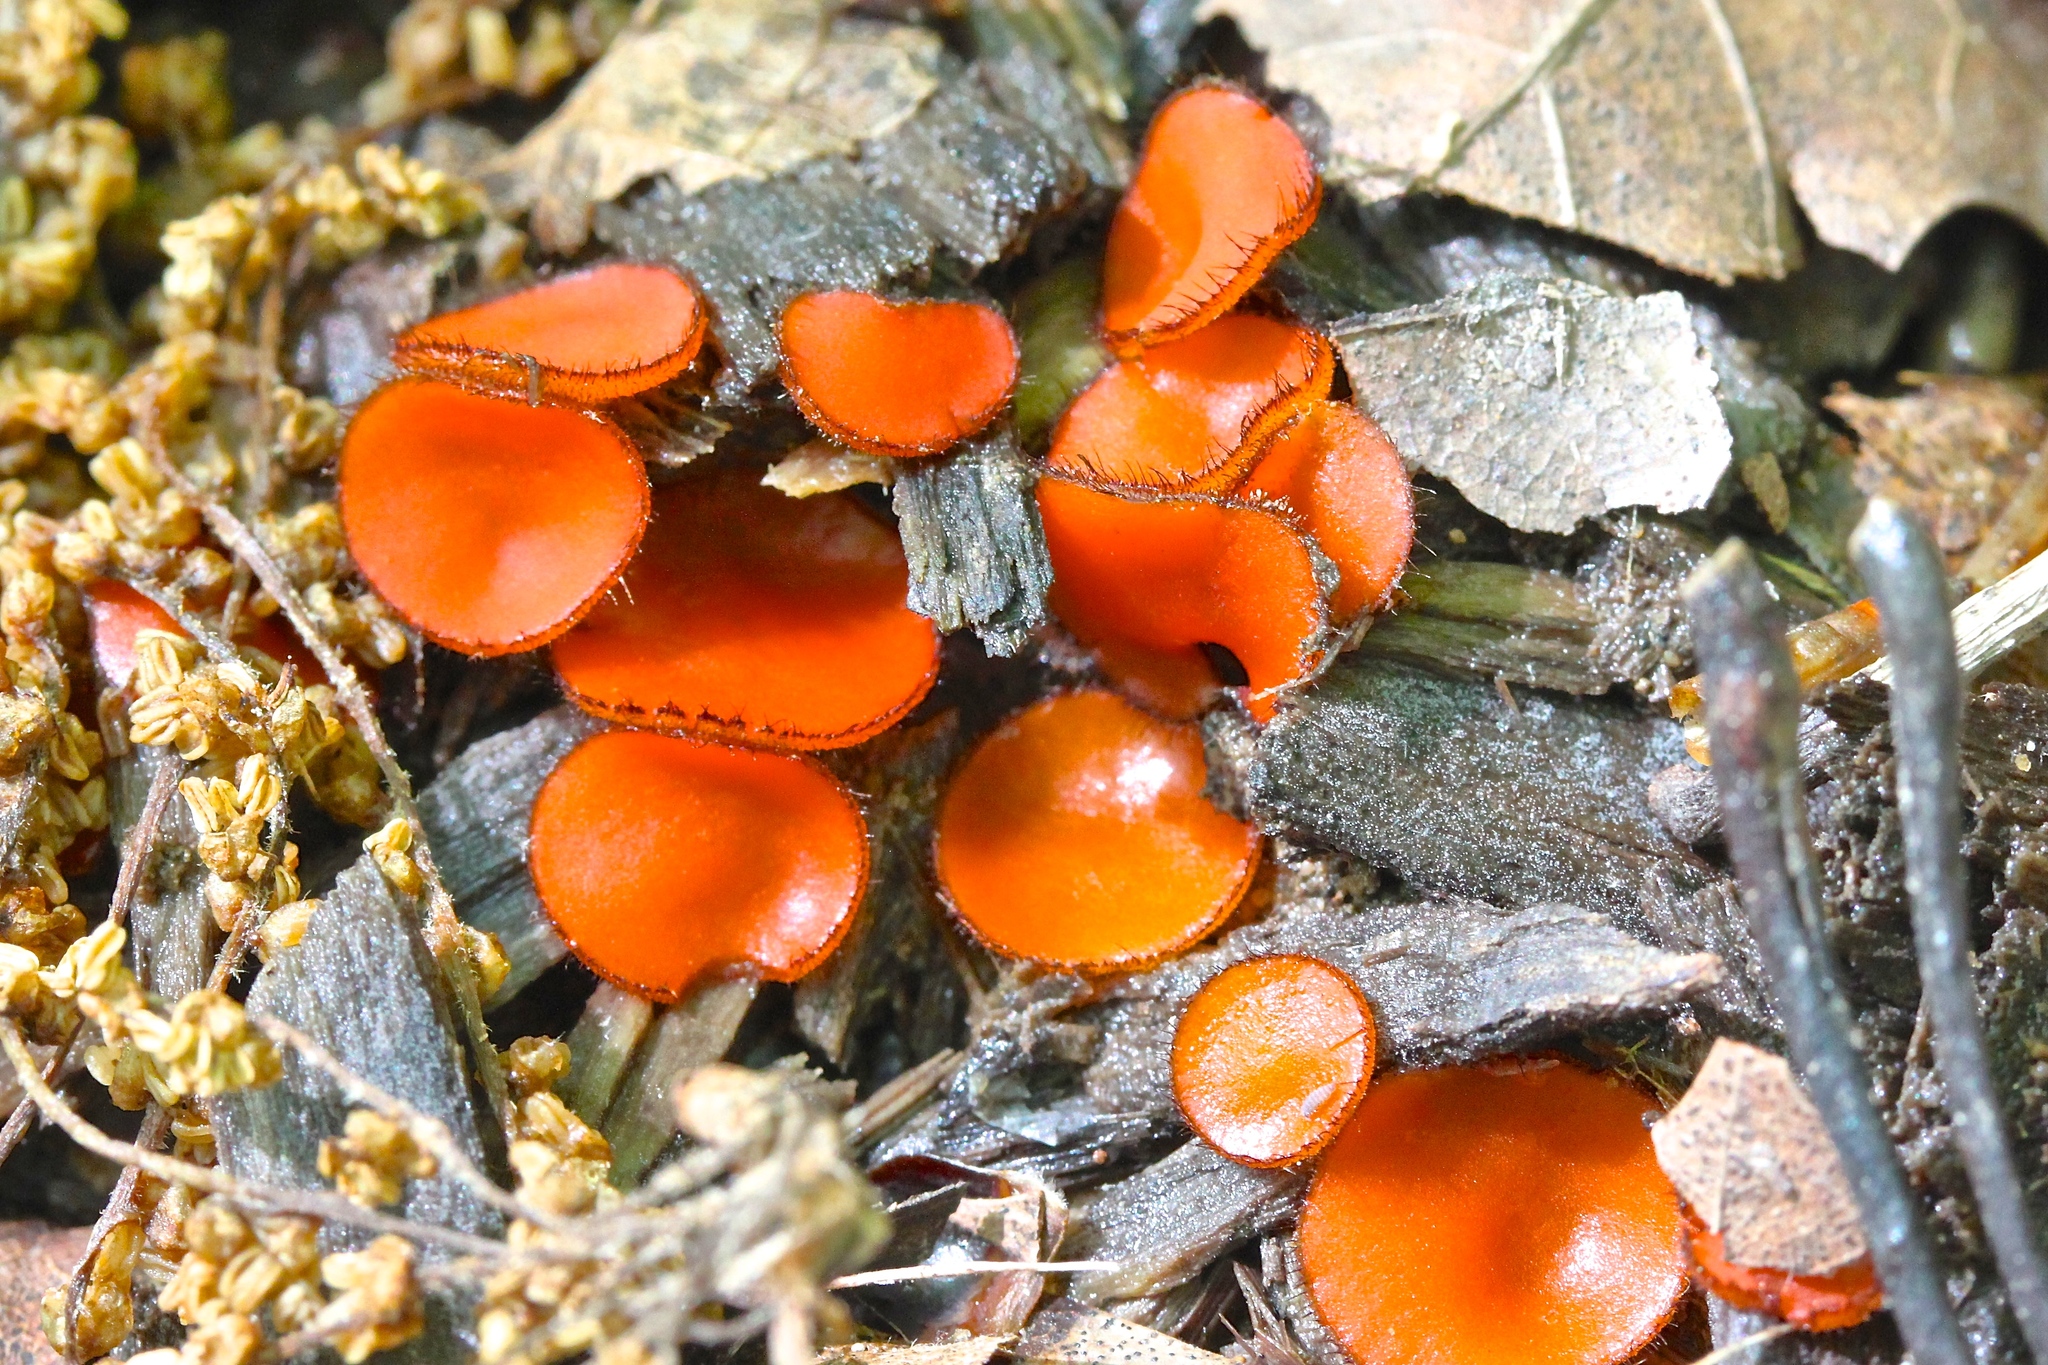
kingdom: Fungi
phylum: Ascomycota
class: Pezizomycetes
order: Pezizales
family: Pyronemataceae
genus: Scutellinia
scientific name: Scutellinia scutellata
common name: Common eyelash
